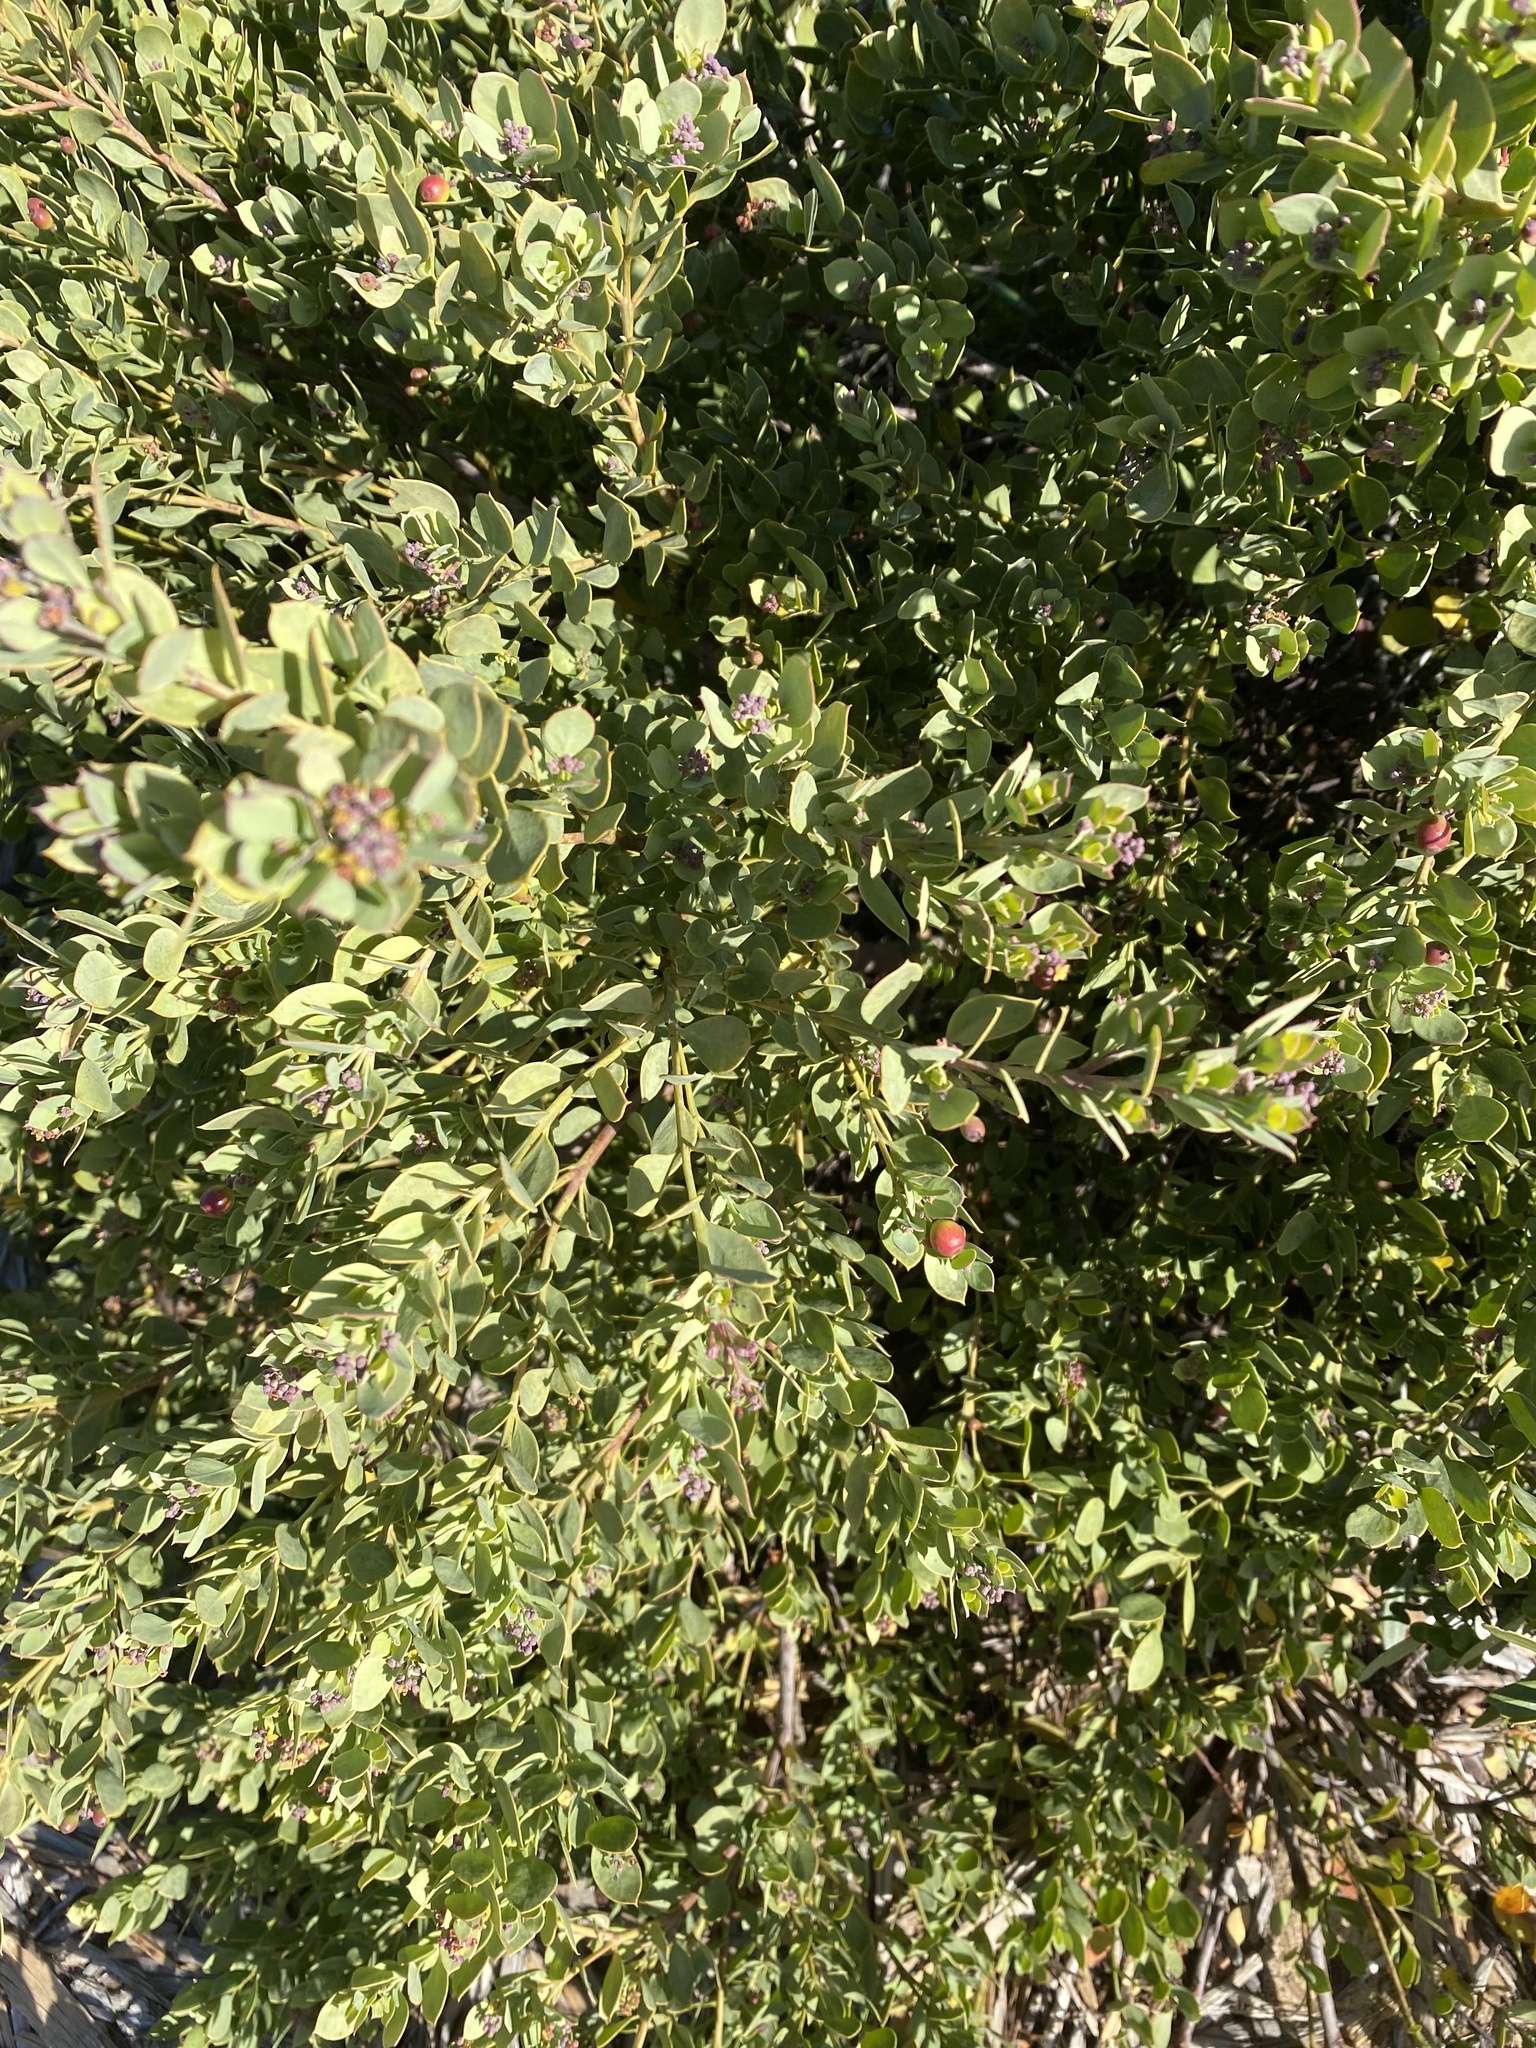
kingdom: Plantae
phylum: Tracheophyta
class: Magnoliopsida
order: Santalales
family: Santalaceae
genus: Osyris
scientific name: Osyris compressa
